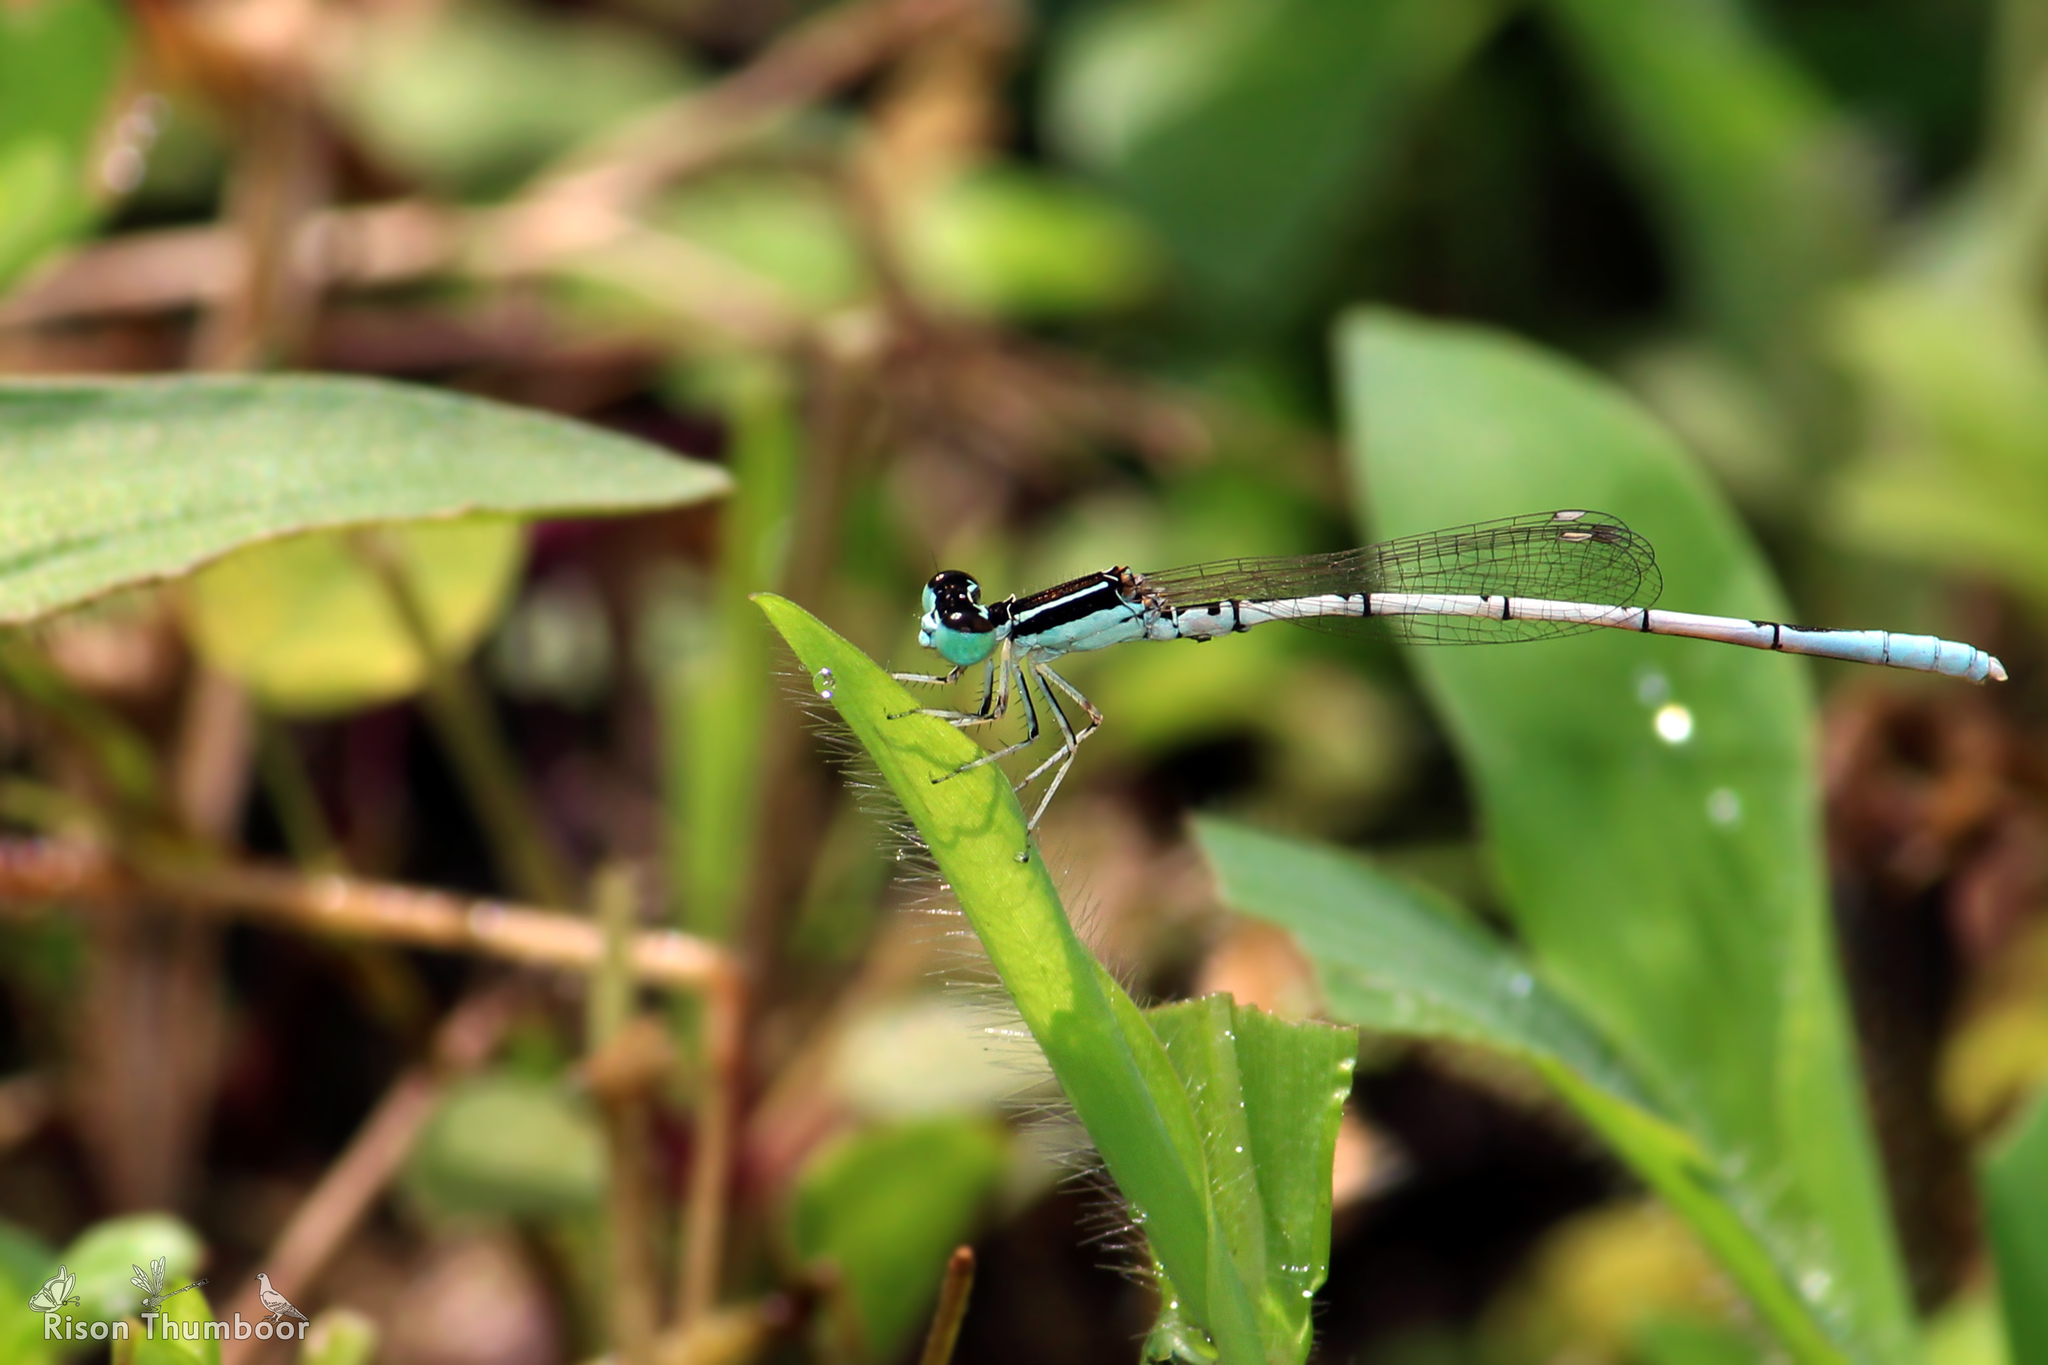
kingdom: Animalia
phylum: Arthropoda
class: Insecta
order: Odonata
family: Coenagrionidae
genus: Agriocnemis
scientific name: Agriocnemis pieris
